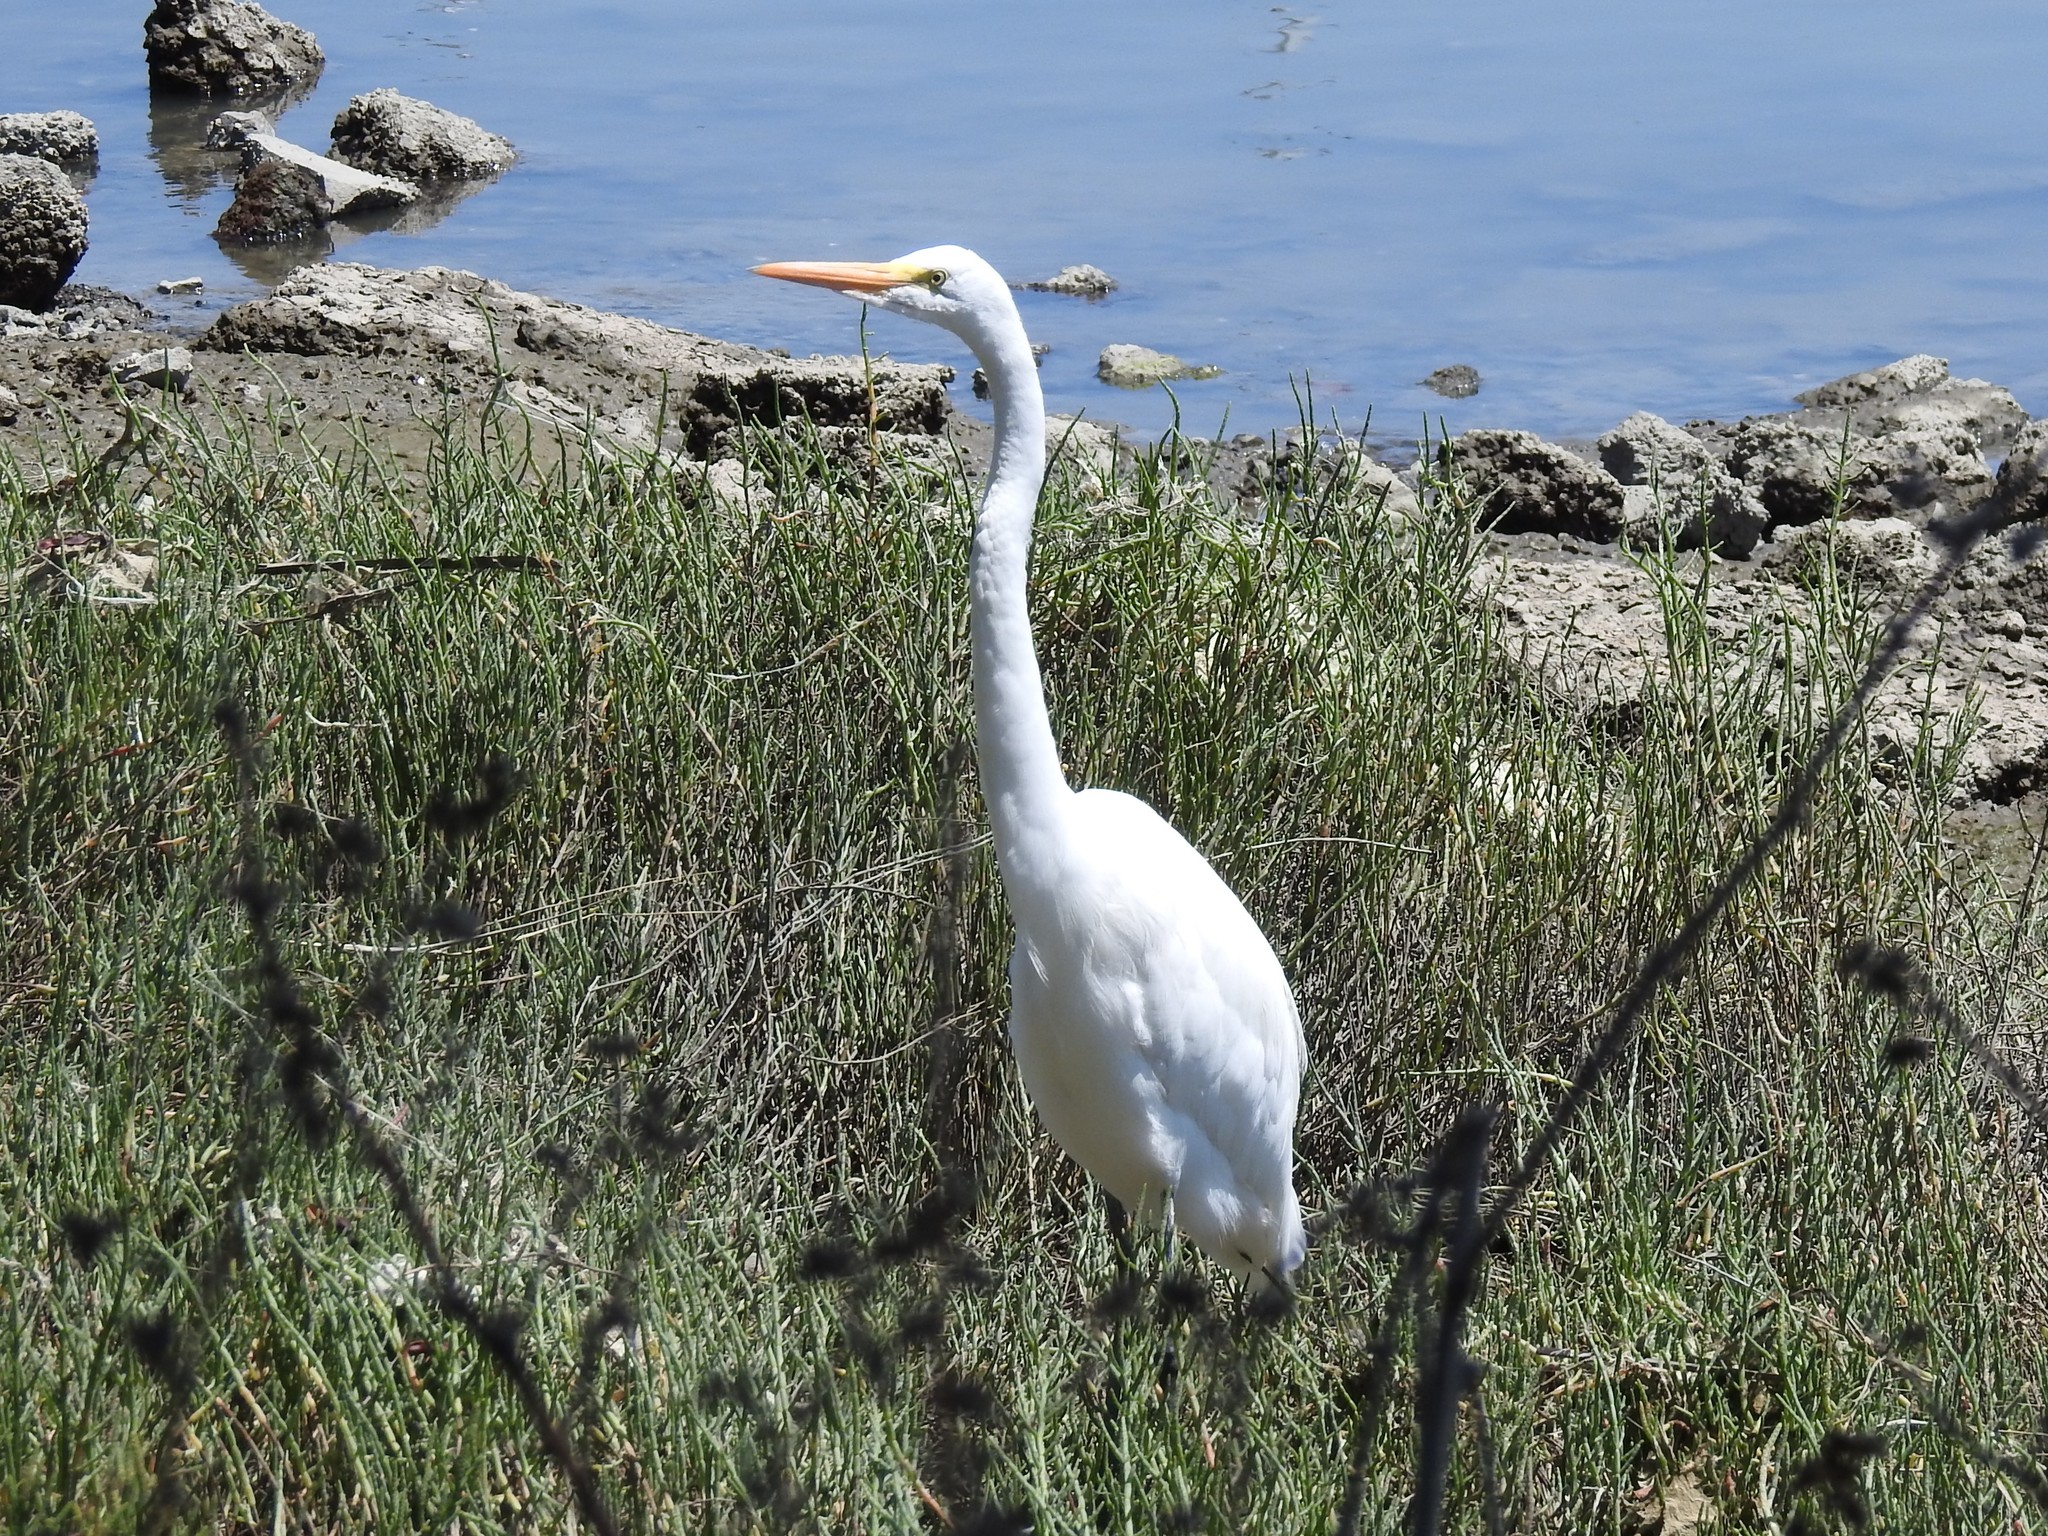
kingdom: Animalia
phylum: Chordata
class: Aves
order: Pelecaniformes
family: Ardeidae
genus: Ardea
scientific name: Ardea alba
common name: Great egret
